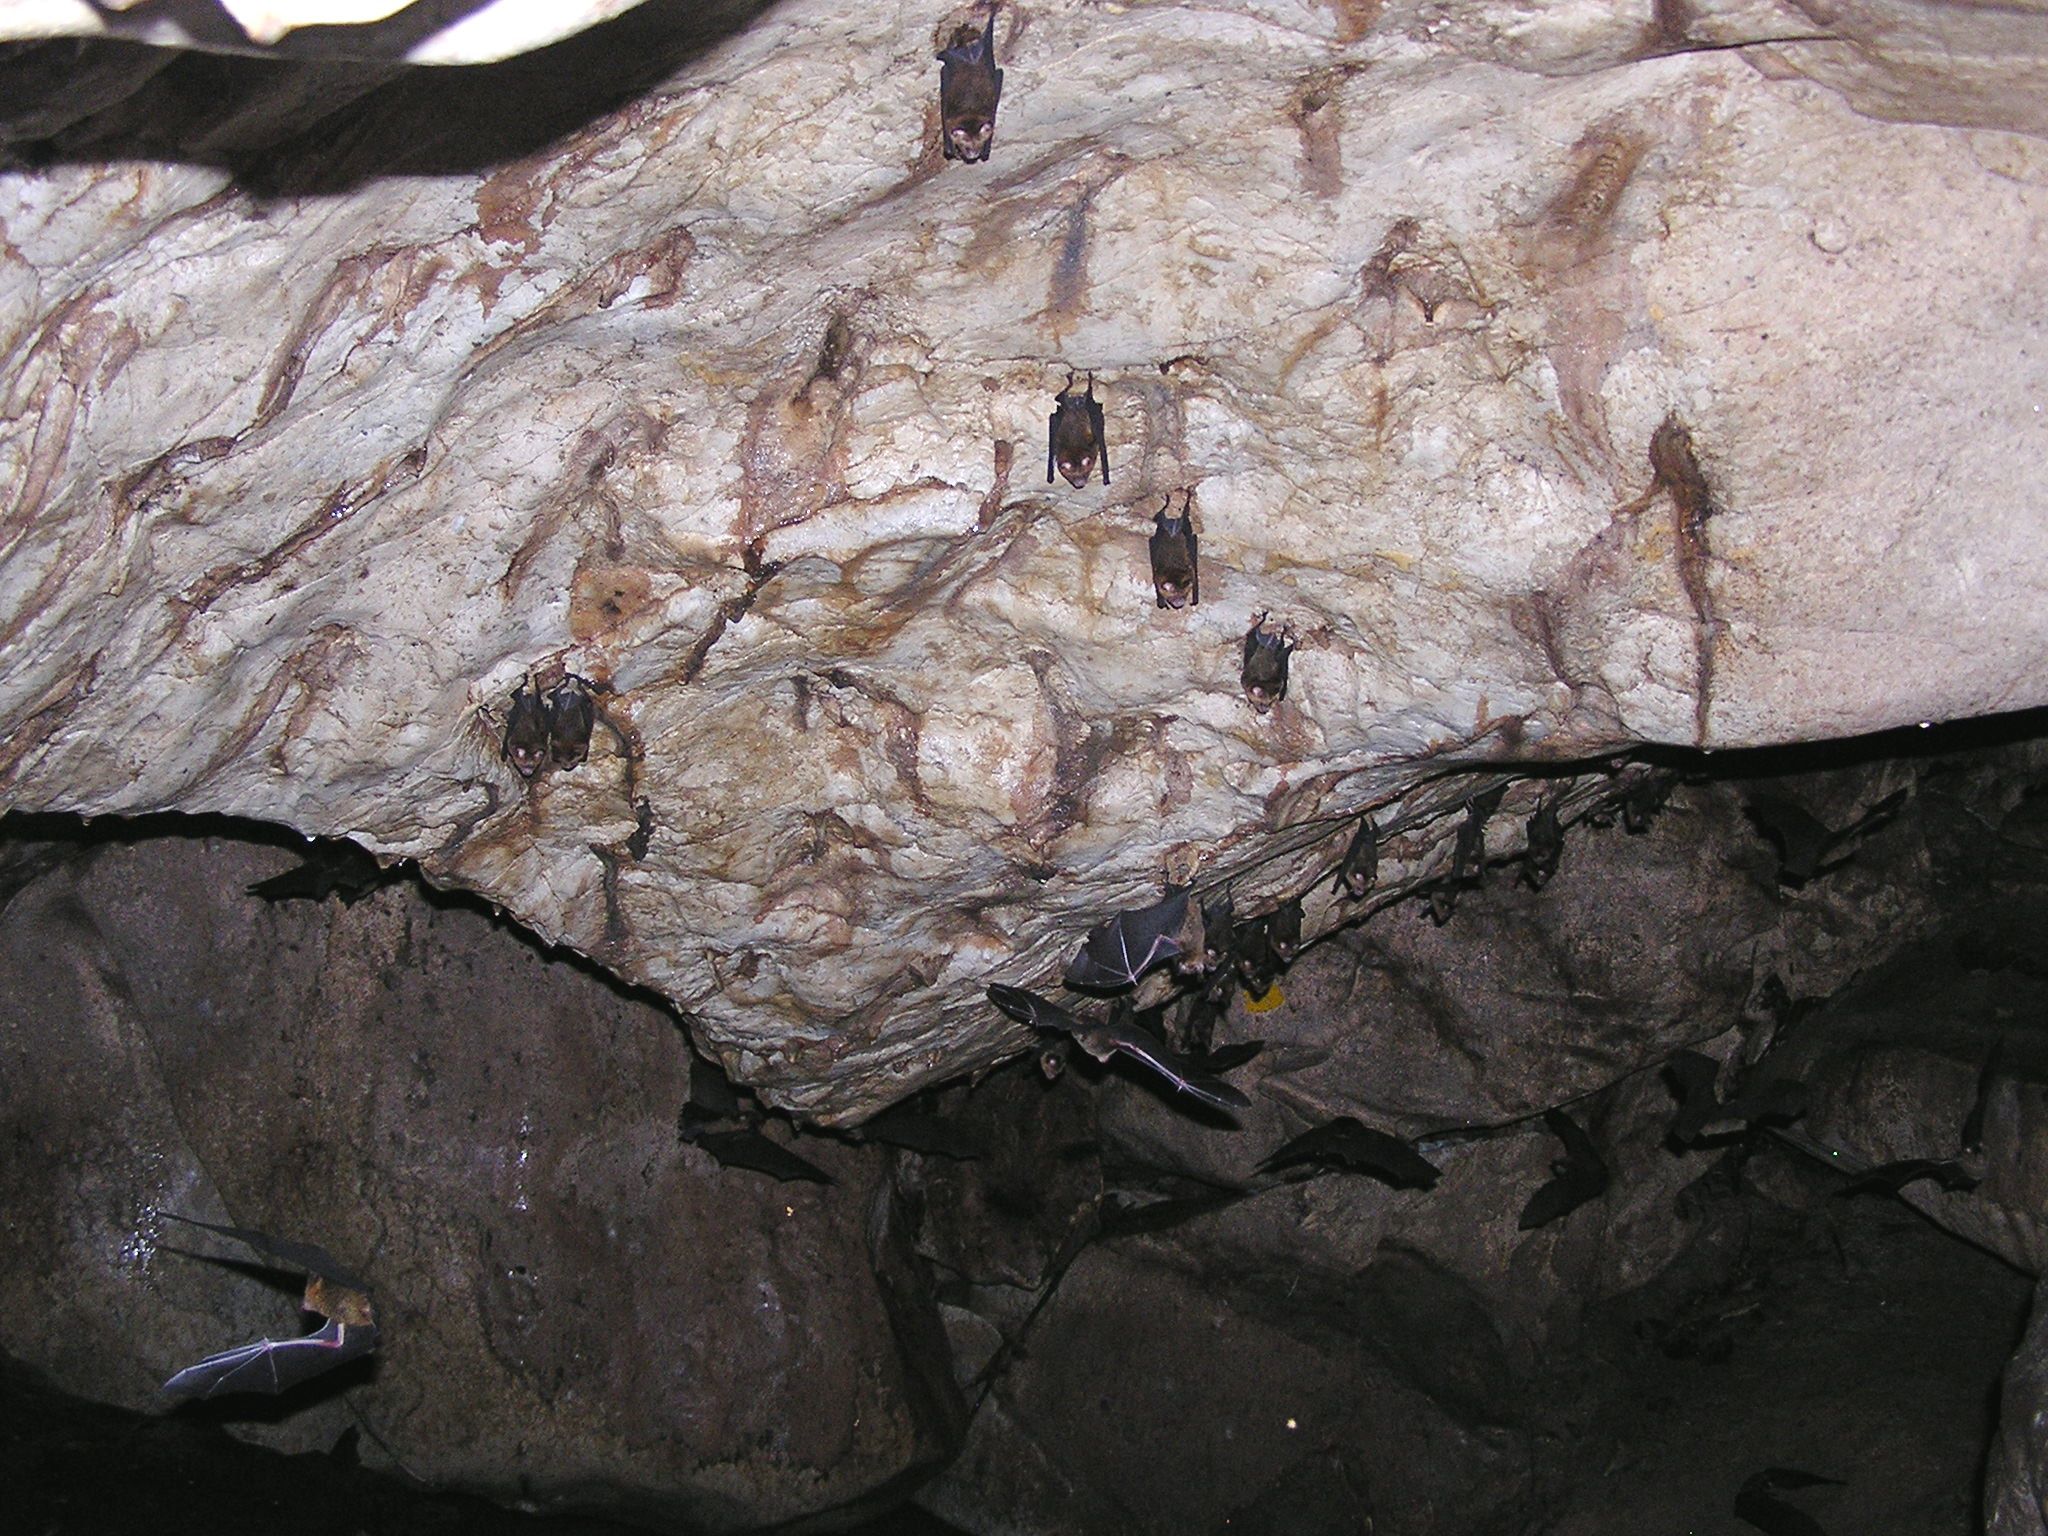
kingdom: Animalia
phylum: Chordata
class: Mammalia
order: Chiroptera
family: Hipposideridae
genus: Hipposideros
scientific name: Hipposideros larvatus
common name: Intermediate leaf-nosed bat
